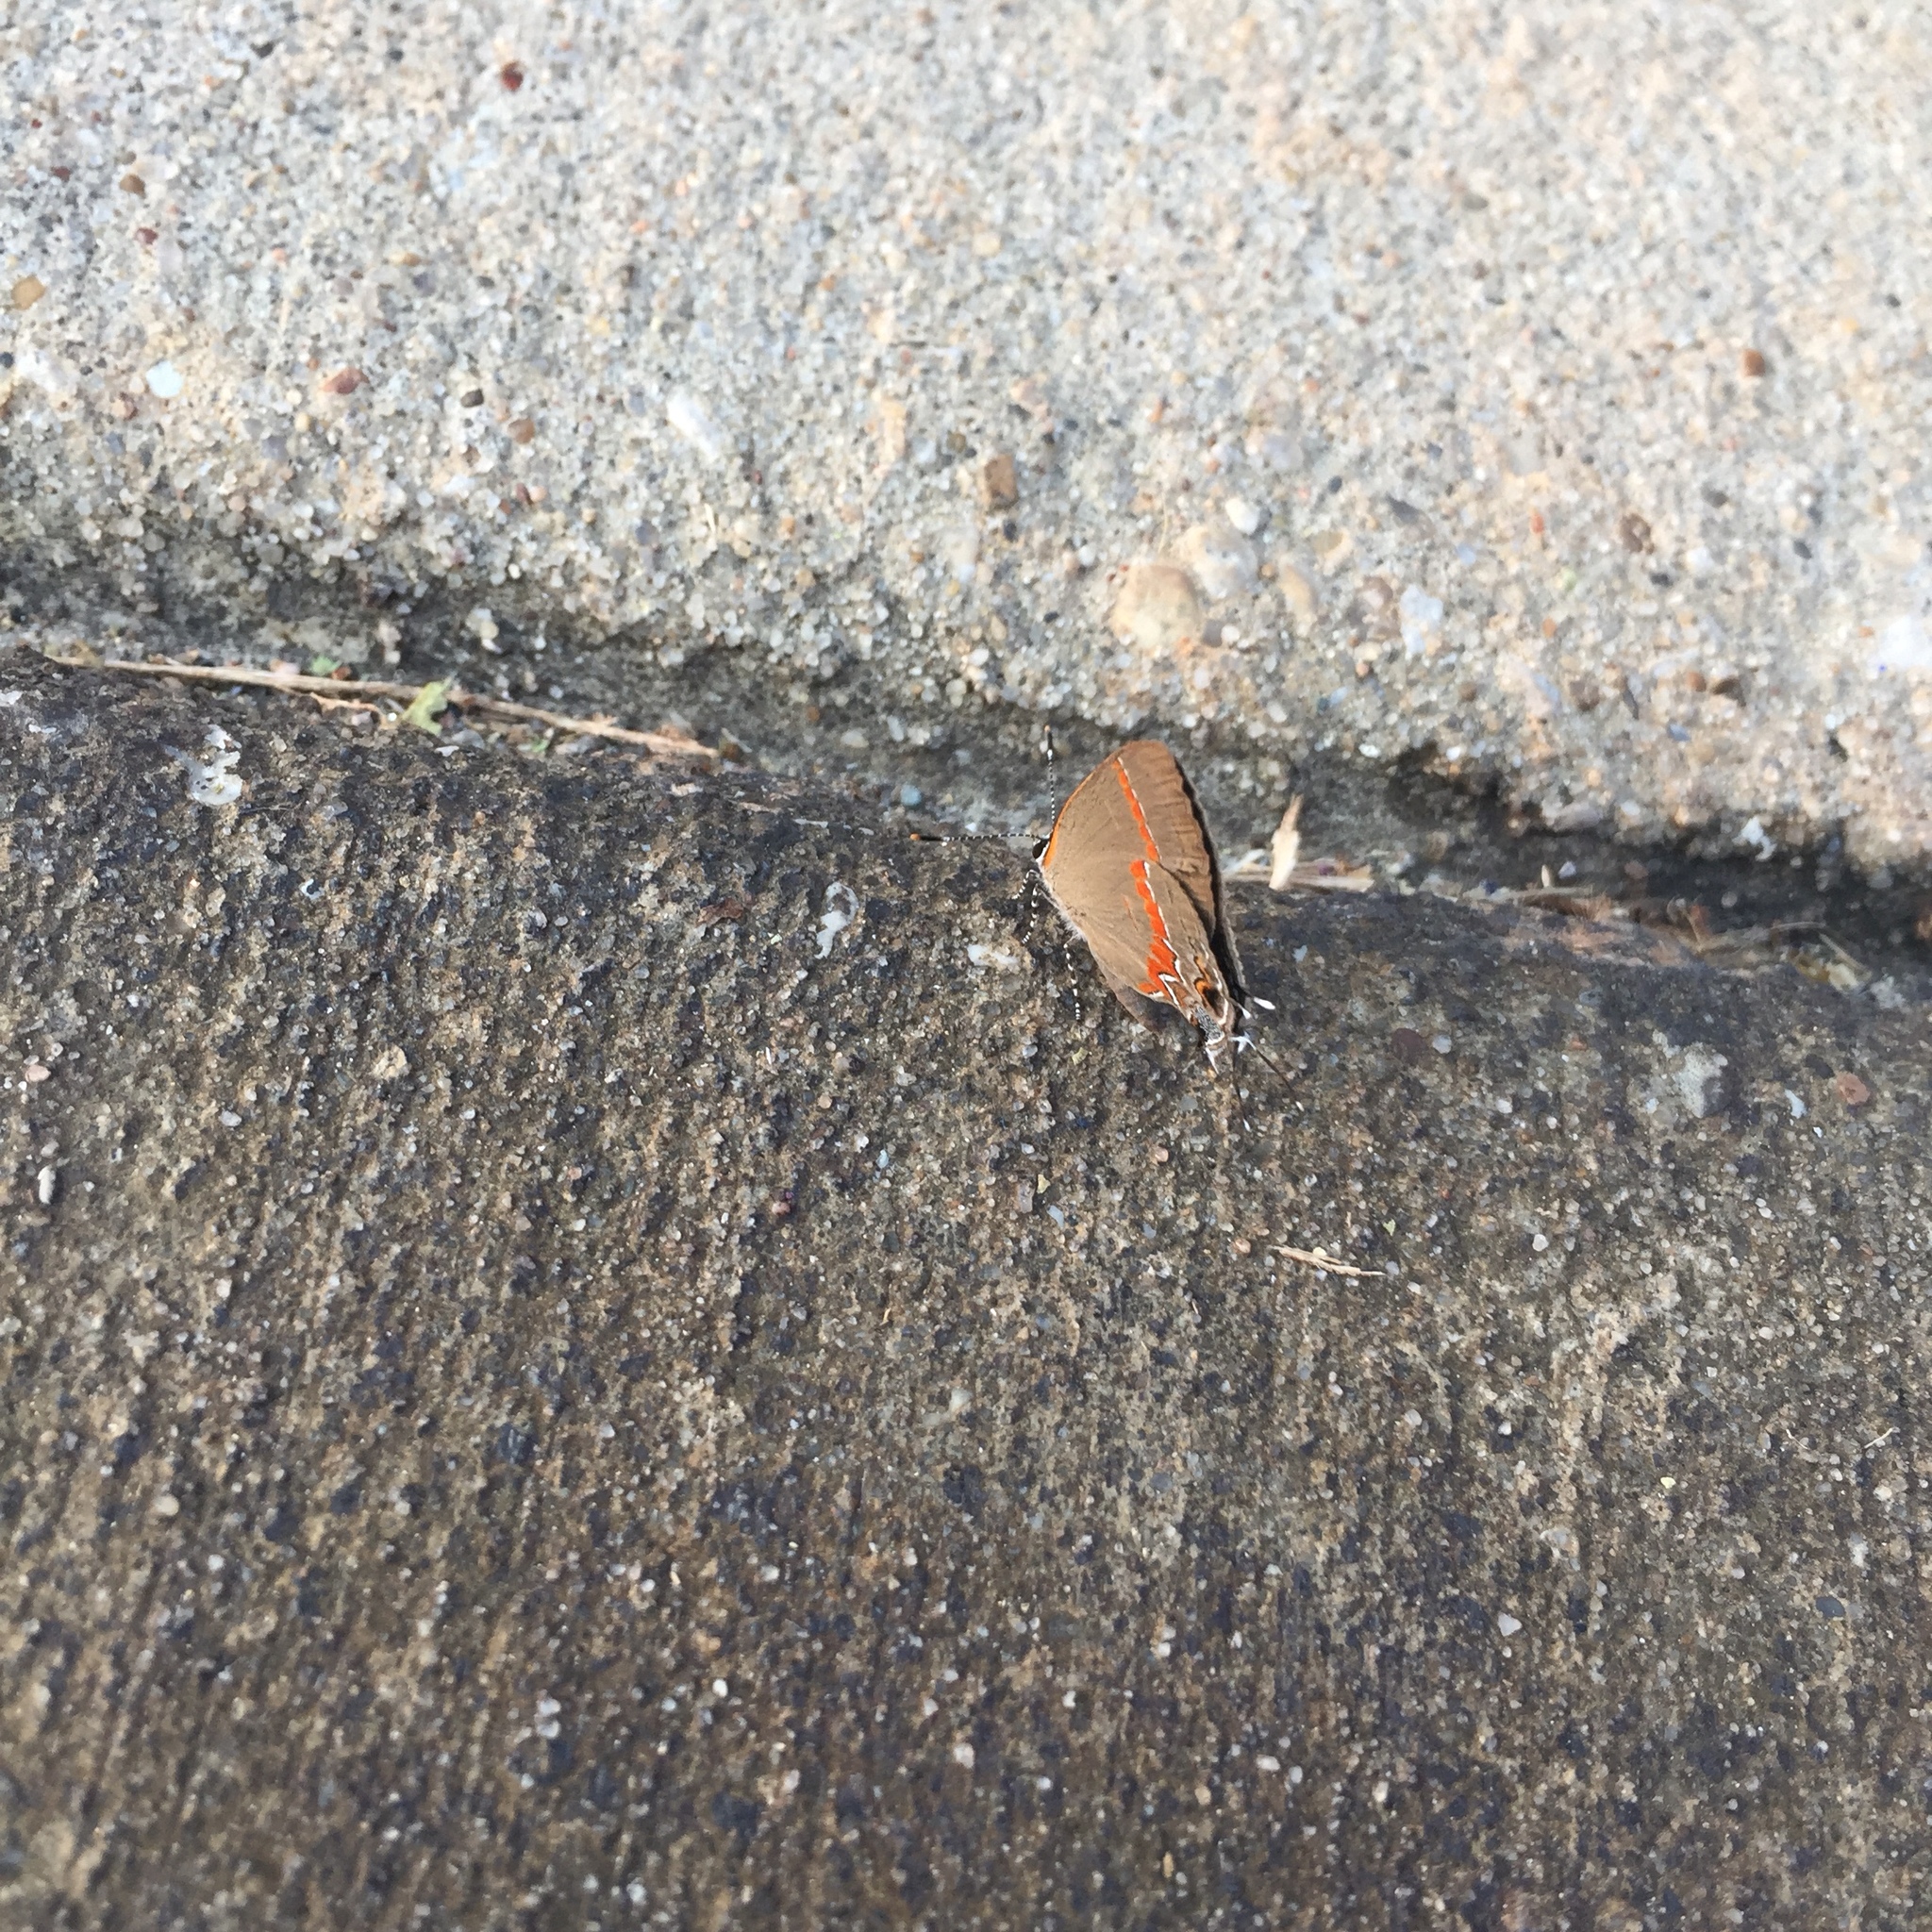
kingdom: Animalia
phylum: Arthropoda
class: Insecta
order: Lepidoptera
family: Lycaenidae
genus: Calycopis
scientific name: Calycopis cecrops
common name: Red-banded hairstreak
